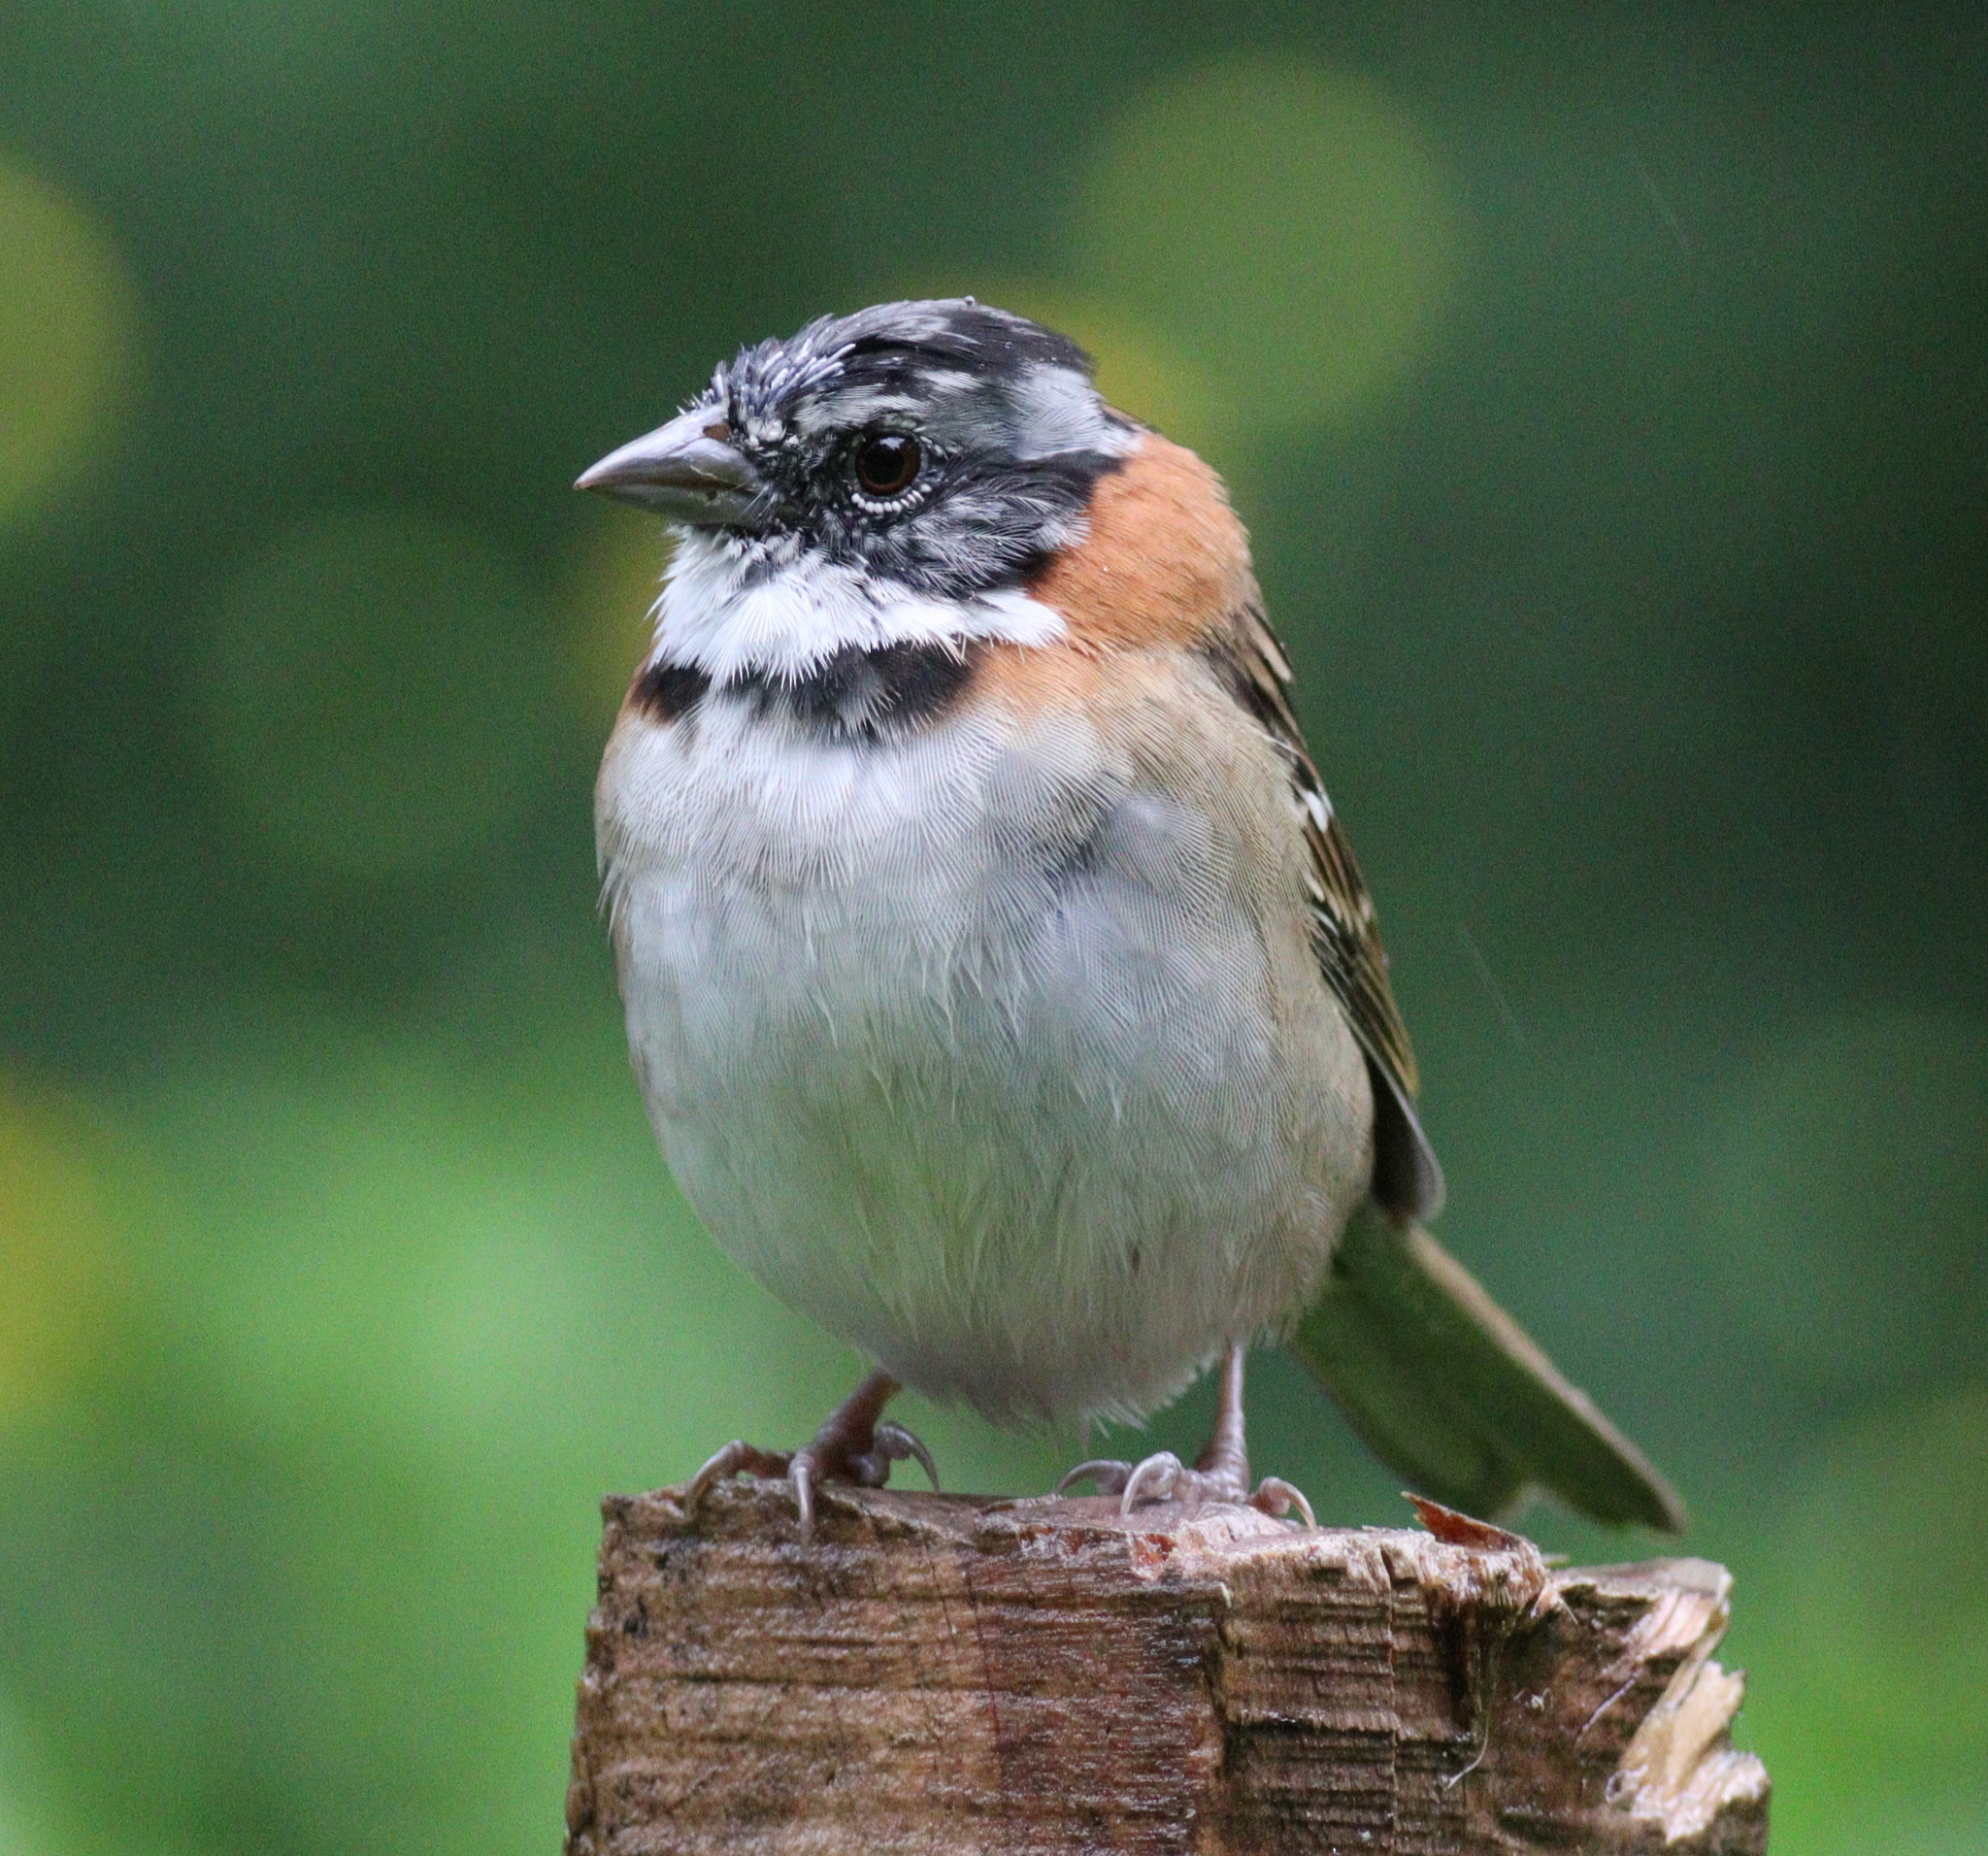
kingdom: Animalia
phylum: Chordata
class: Aves
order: Passeriformes
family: Passerellidae
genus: Zonotrichia
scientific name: Zonotrichia capensis
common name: Rufous-collared sparrow
